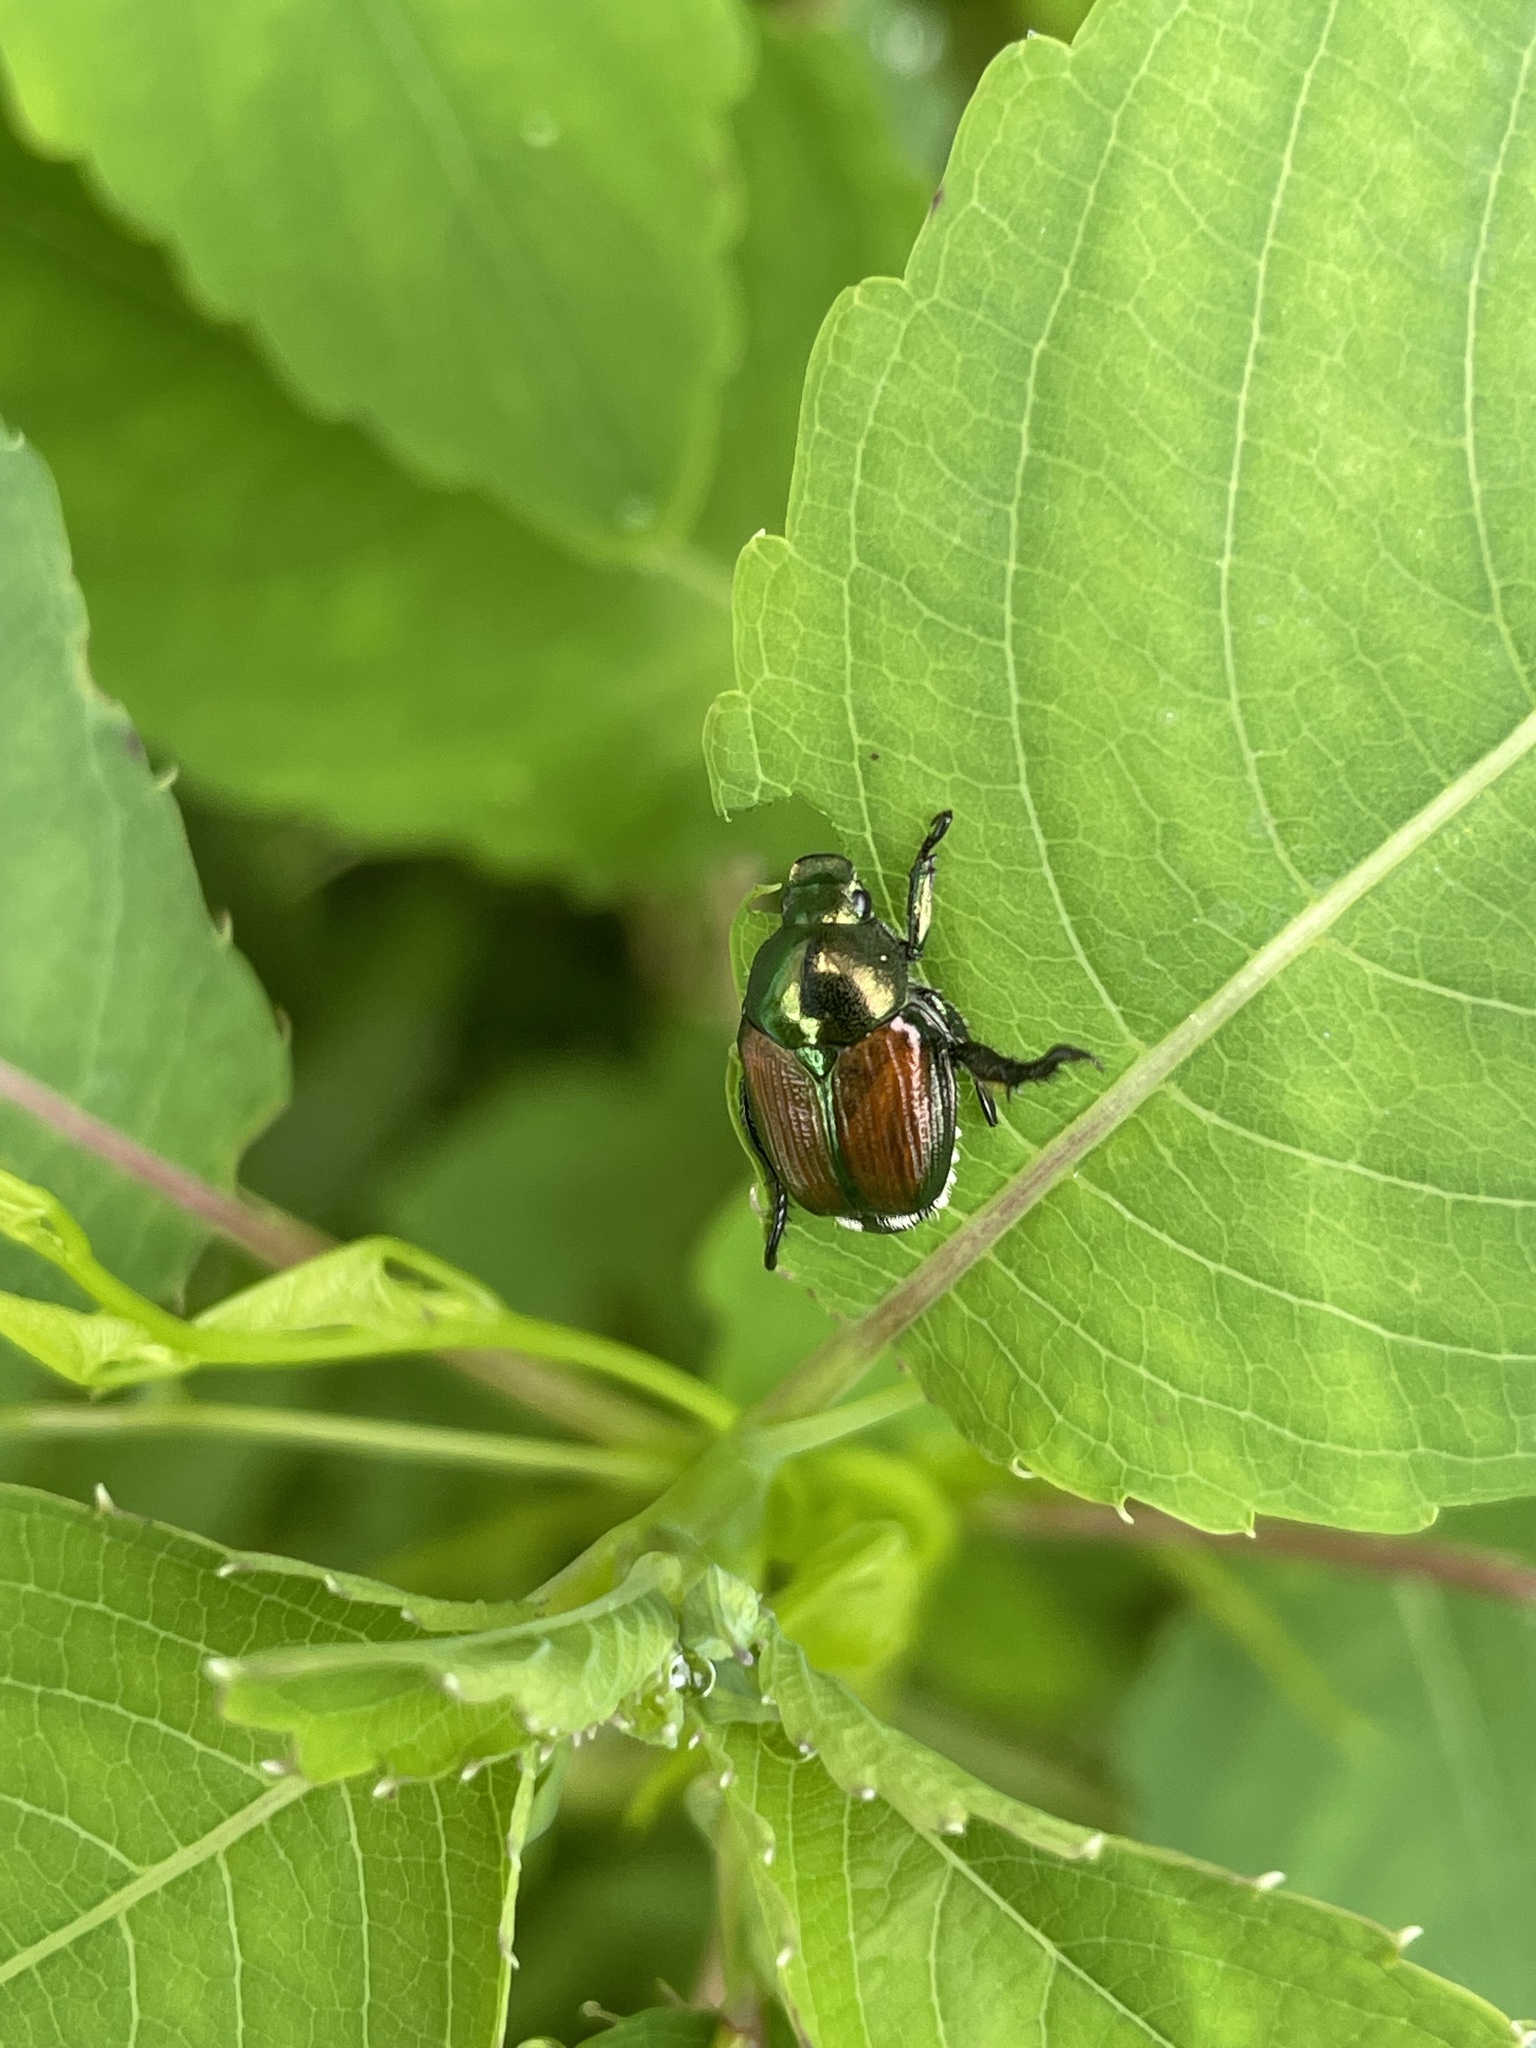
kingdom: Animalia
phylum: Arthropoda
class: Insecta
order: Coleoptera
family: Scarabaeidae
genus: Popillia
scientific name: Popillia japonica
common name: Japanese beetle
